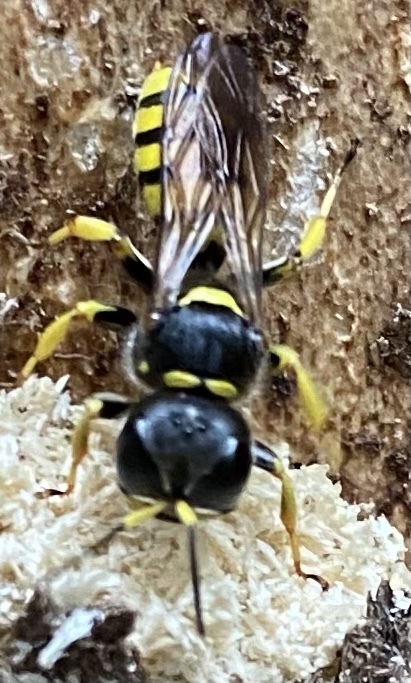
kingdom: Animalia
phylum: Arthropoda
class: Insecta
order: Hymenoptera
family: Crabronidae
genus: Ectemnius
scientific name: Ectemnius cephalotes
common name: Sphecid wasp
